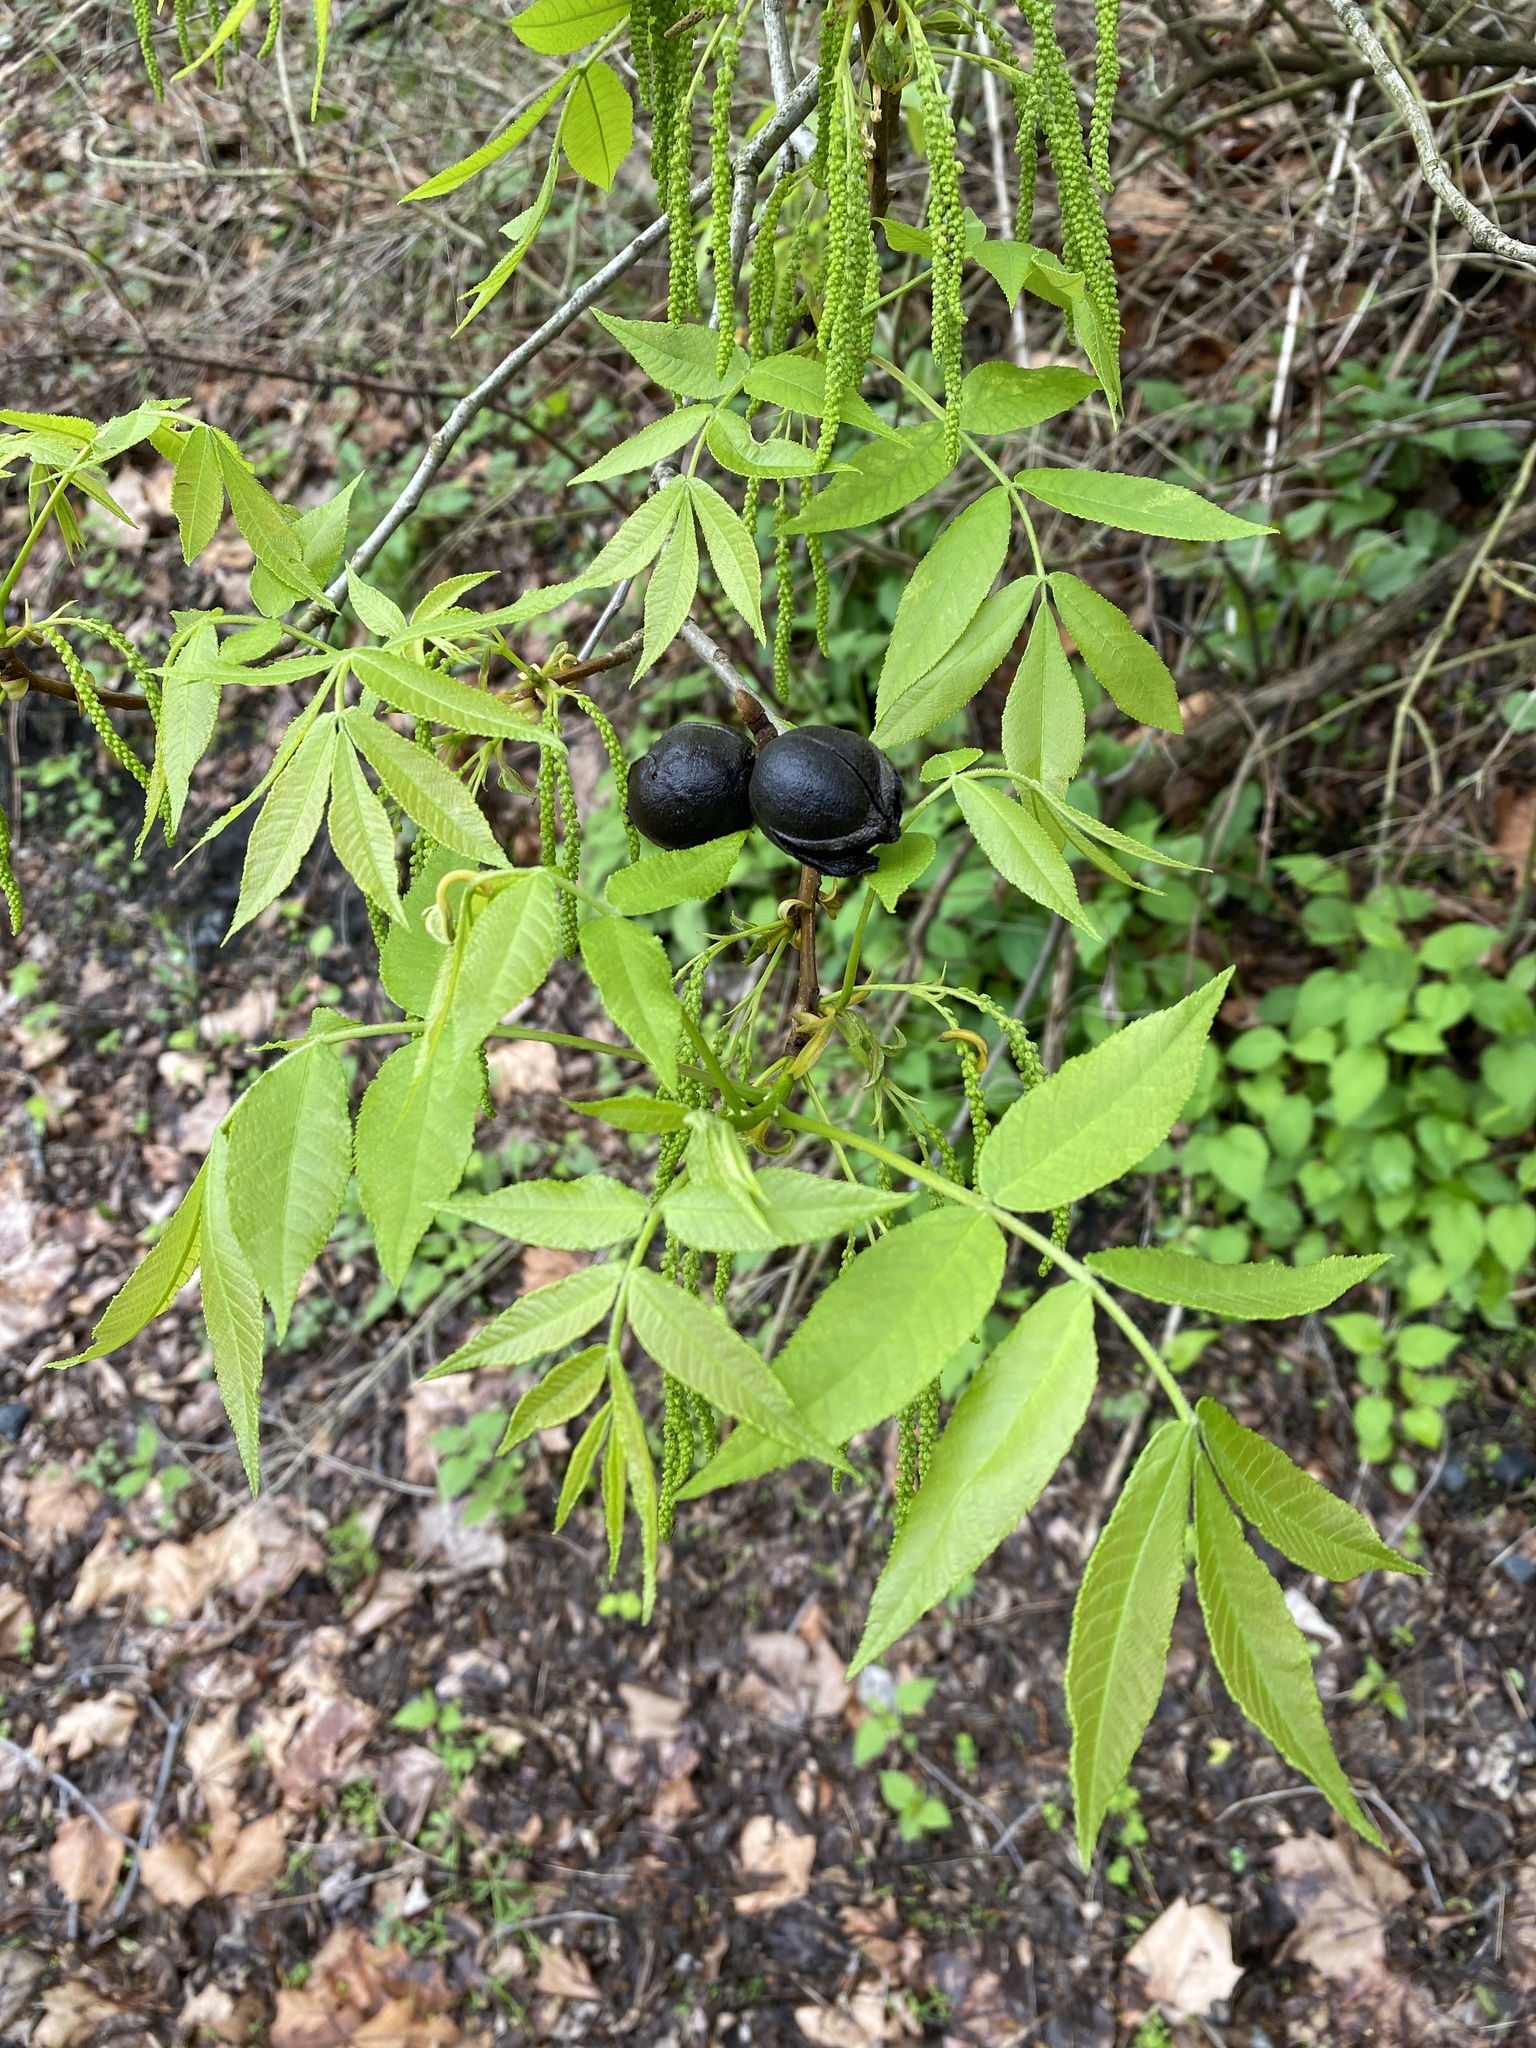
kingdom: Plantae
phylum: Tracheophyta
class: Magnoliopsida
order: Fagales
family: Juglandaceae
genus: Carya
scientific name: Carya cordiformis
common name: Bitternut hickory
